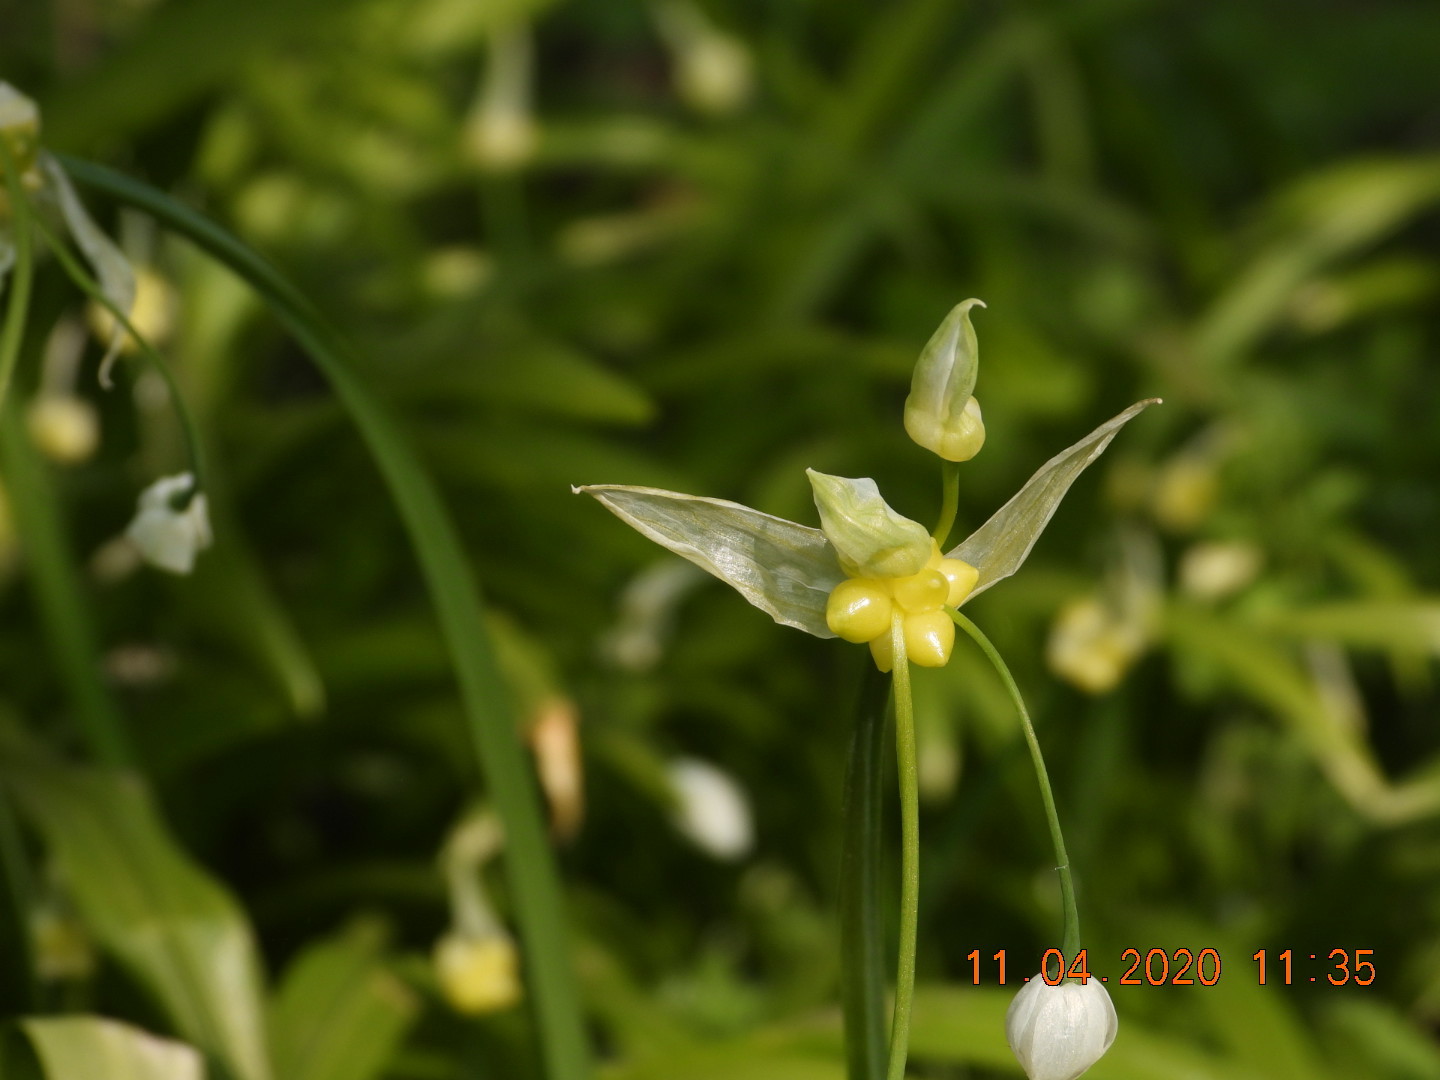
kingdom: Plantae
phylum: Tracheophyta
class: Liliopsida
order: Asparagales
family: Amaryllidaceae
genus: Allium
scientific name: Allium paradoxum
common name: Few-flowered garlic
